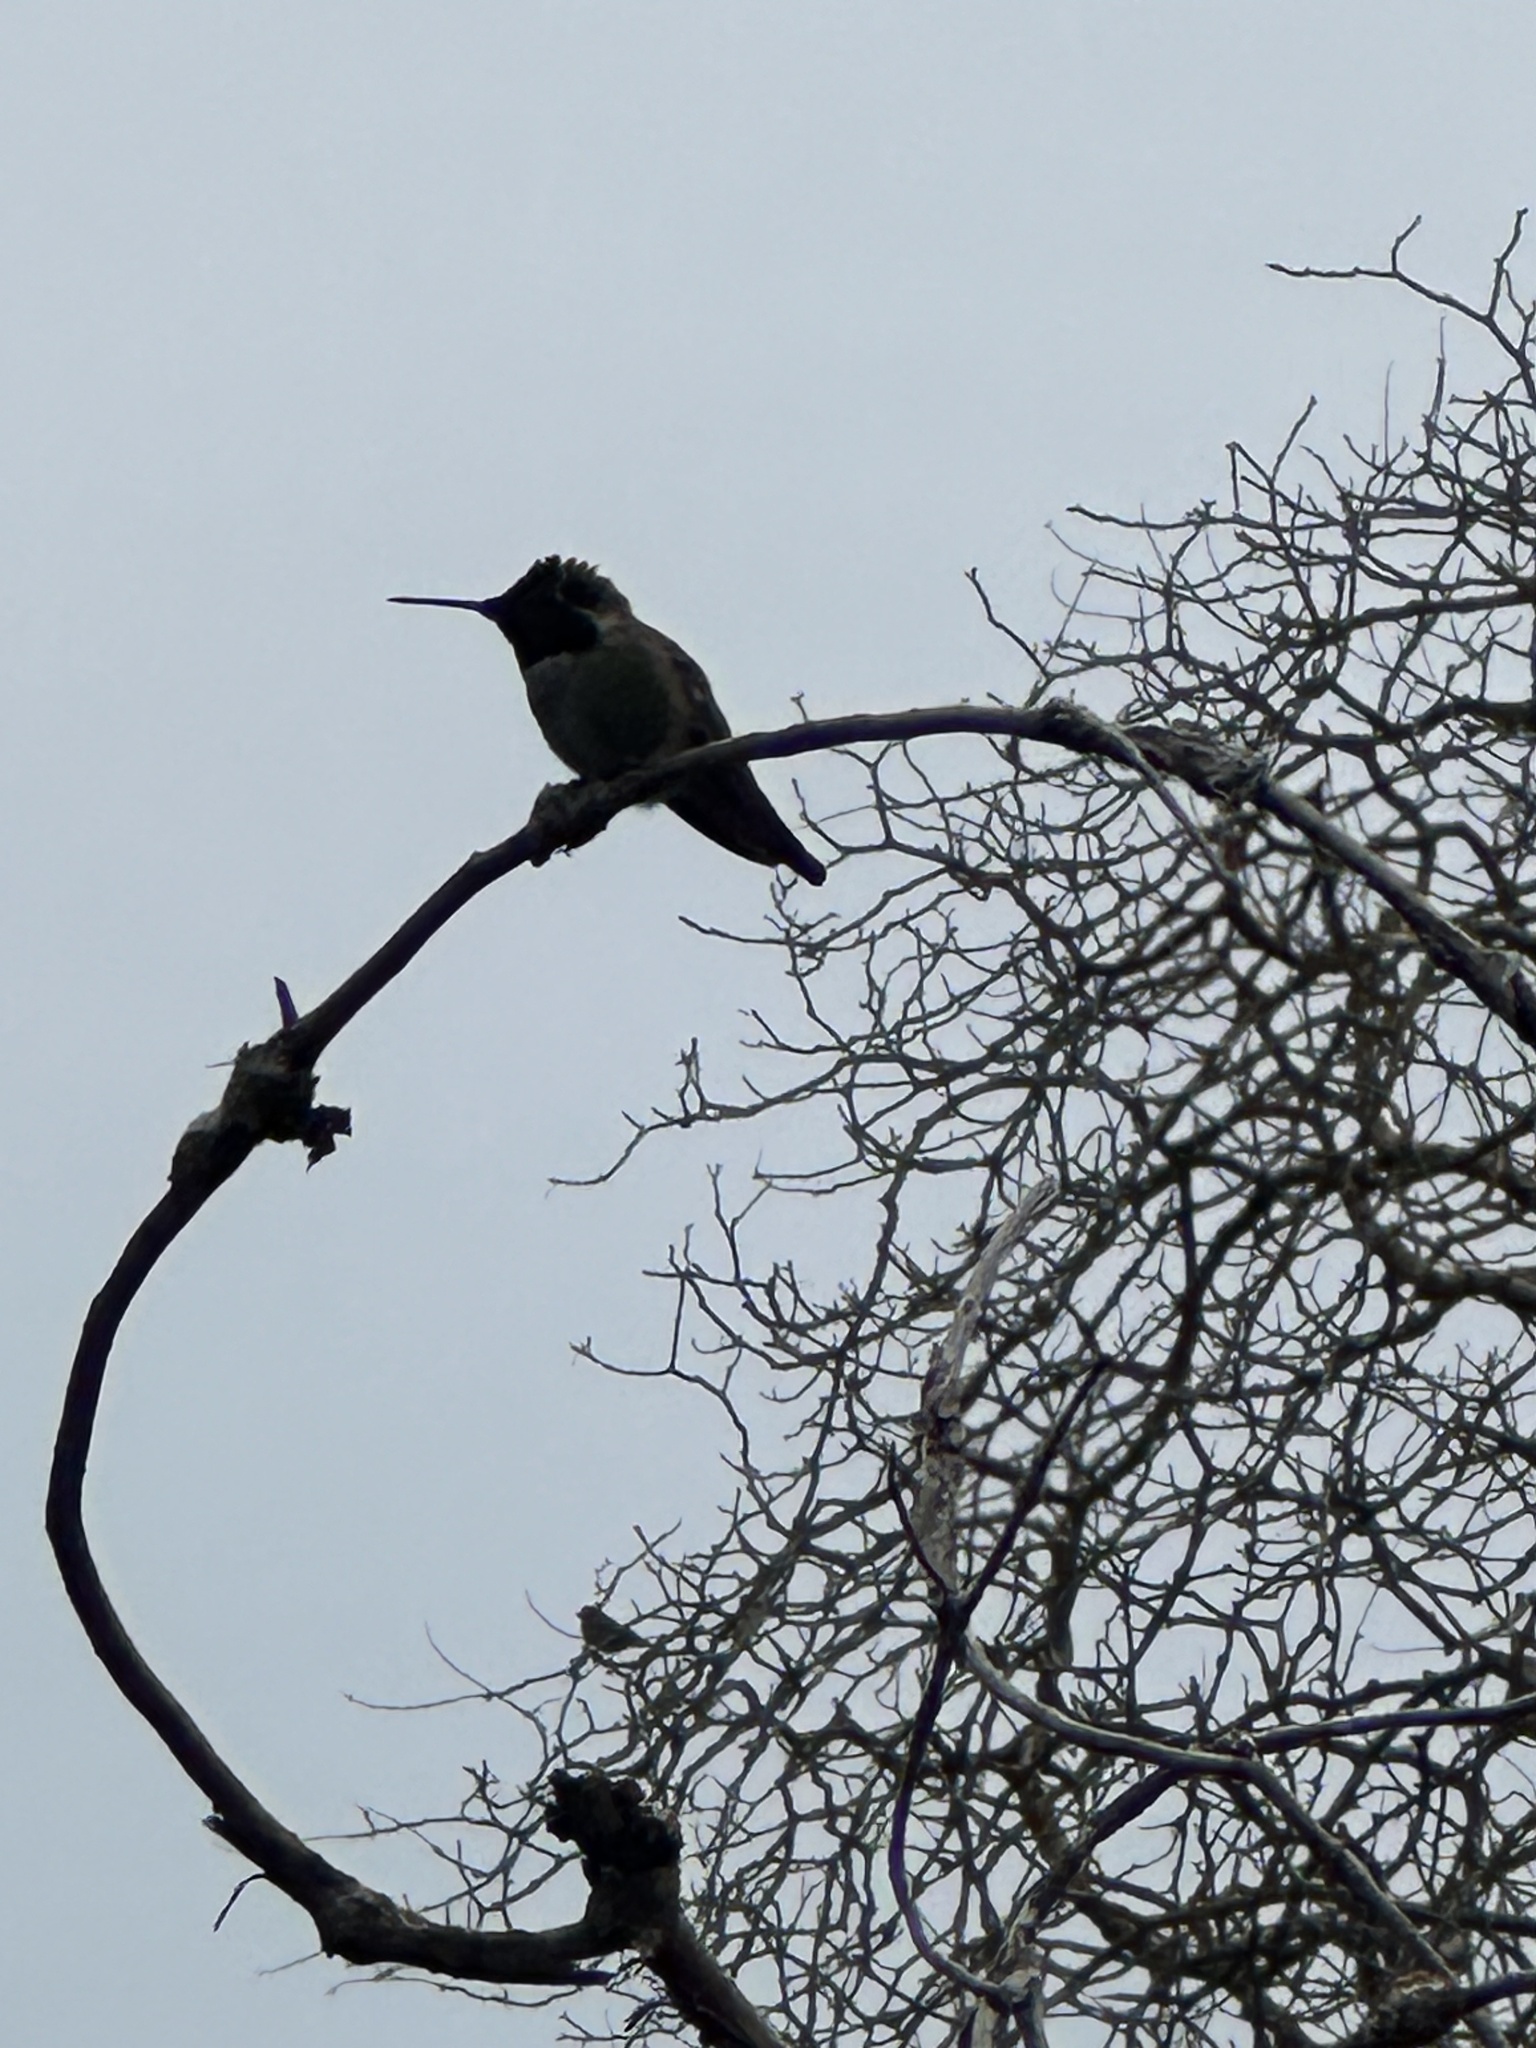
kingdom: Animalia
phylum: Chordata
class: Aves
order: Apodiformes
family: Trochilidae
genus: Calypte
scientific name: Calypte anna
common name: Anna's hummingbird
